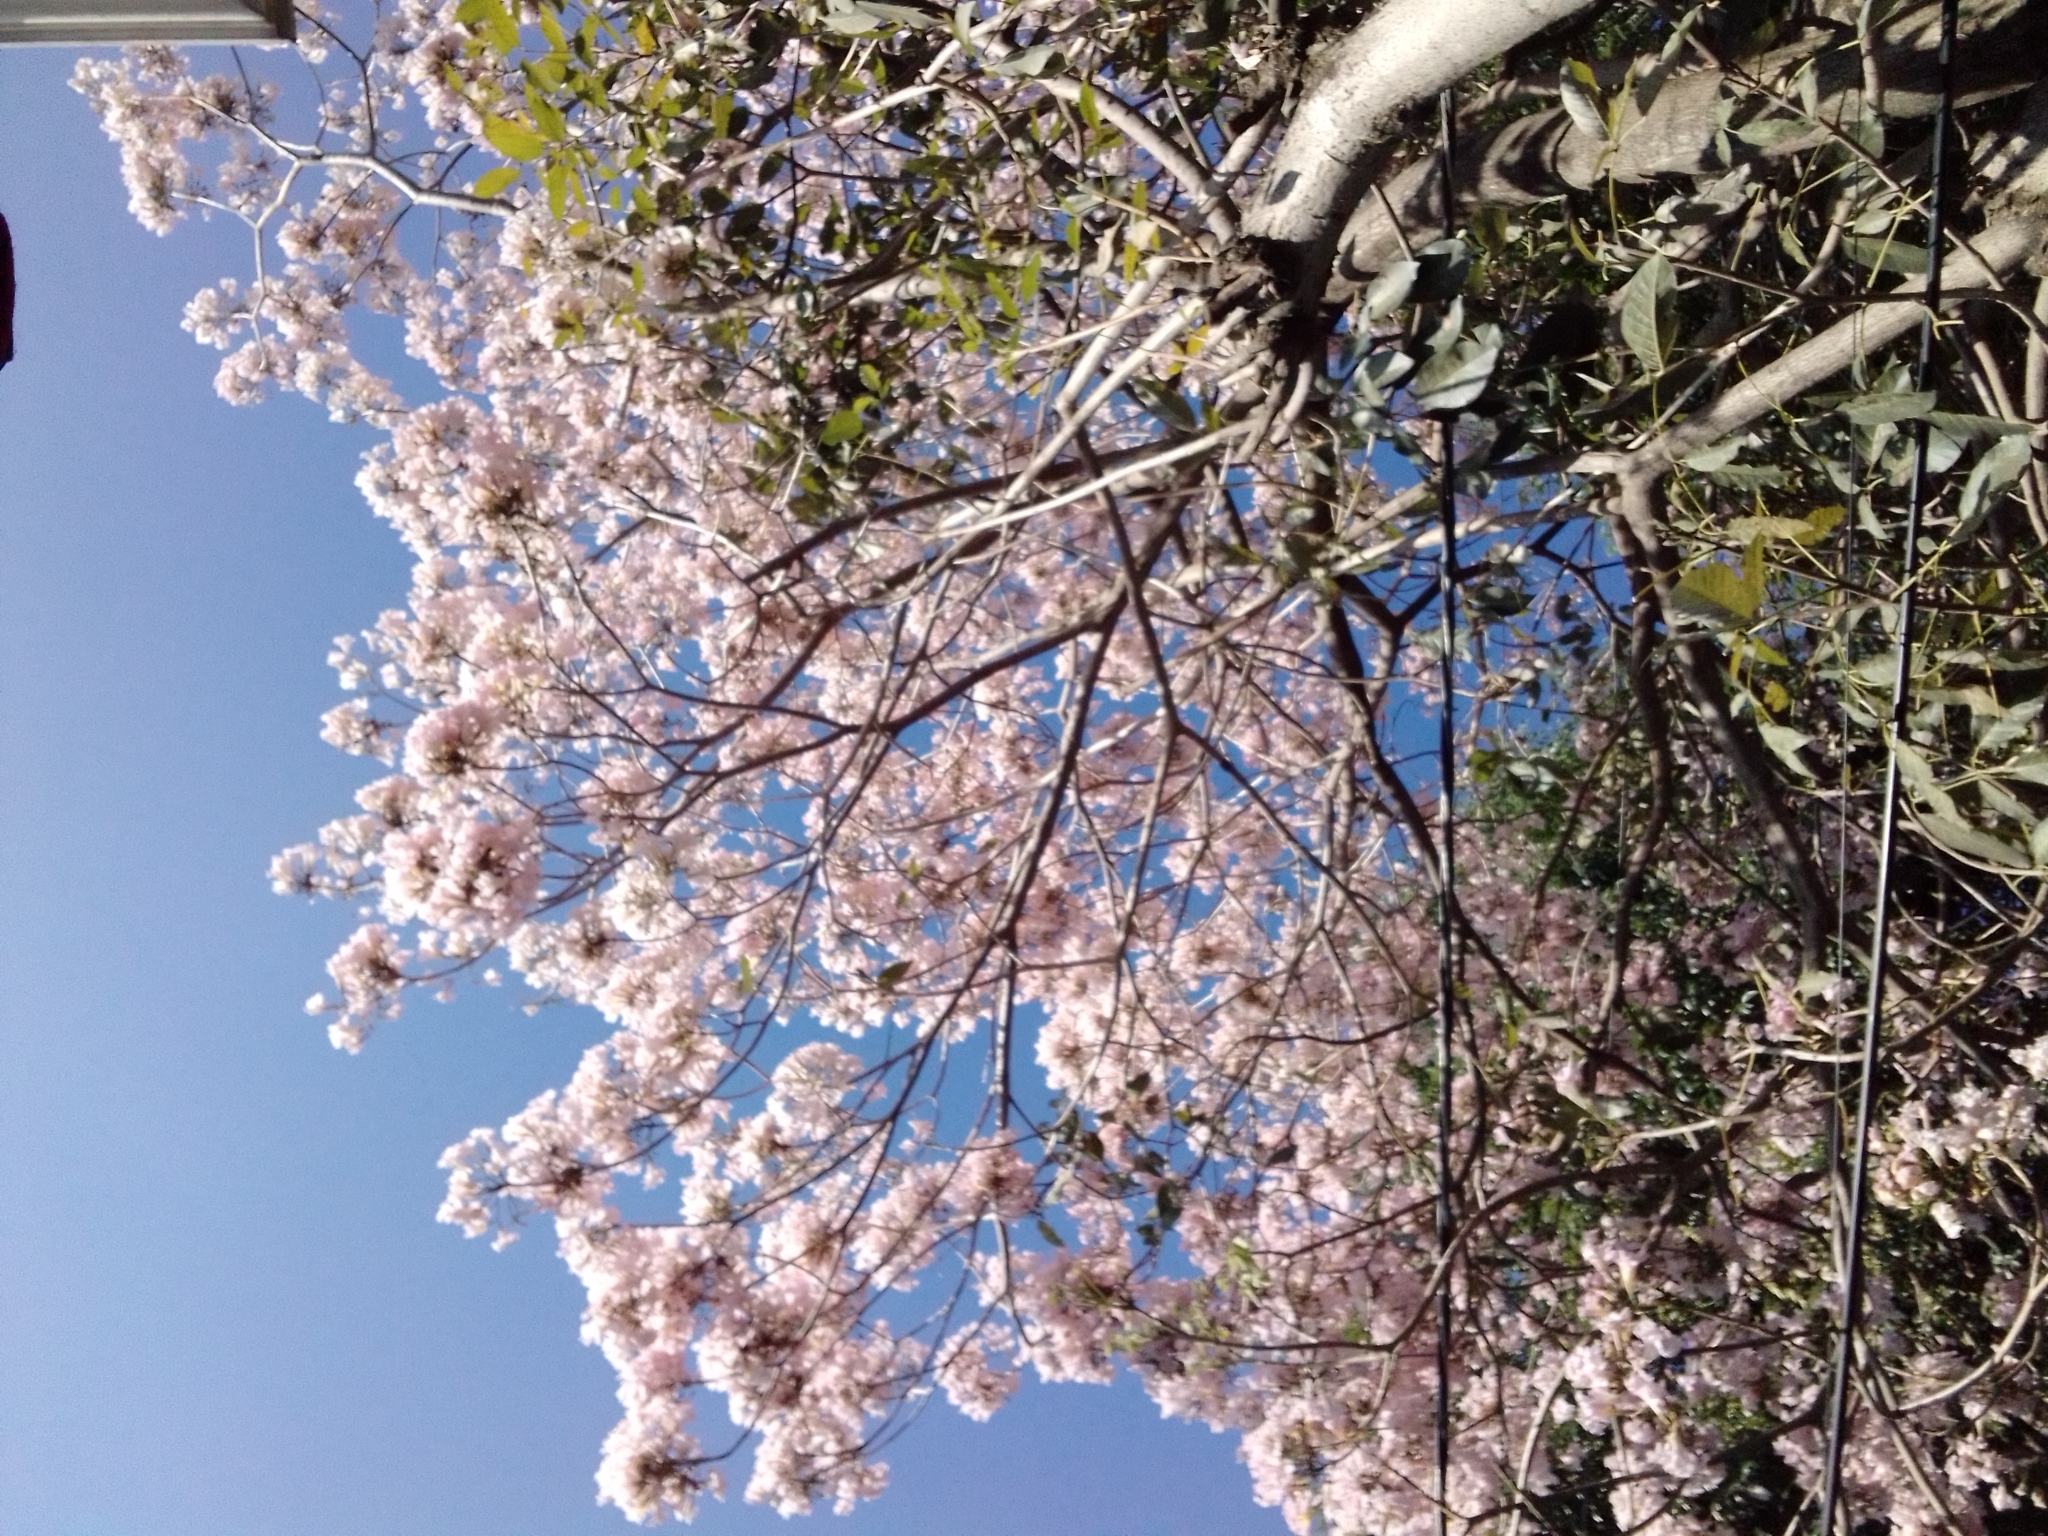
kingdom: Plantae
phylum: Tracheophyta
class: Magnoliopsida
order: Lamiales
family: Bignoniaceae
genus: Tabebuia
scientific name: Tabebuia rosea
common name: Pink poui
